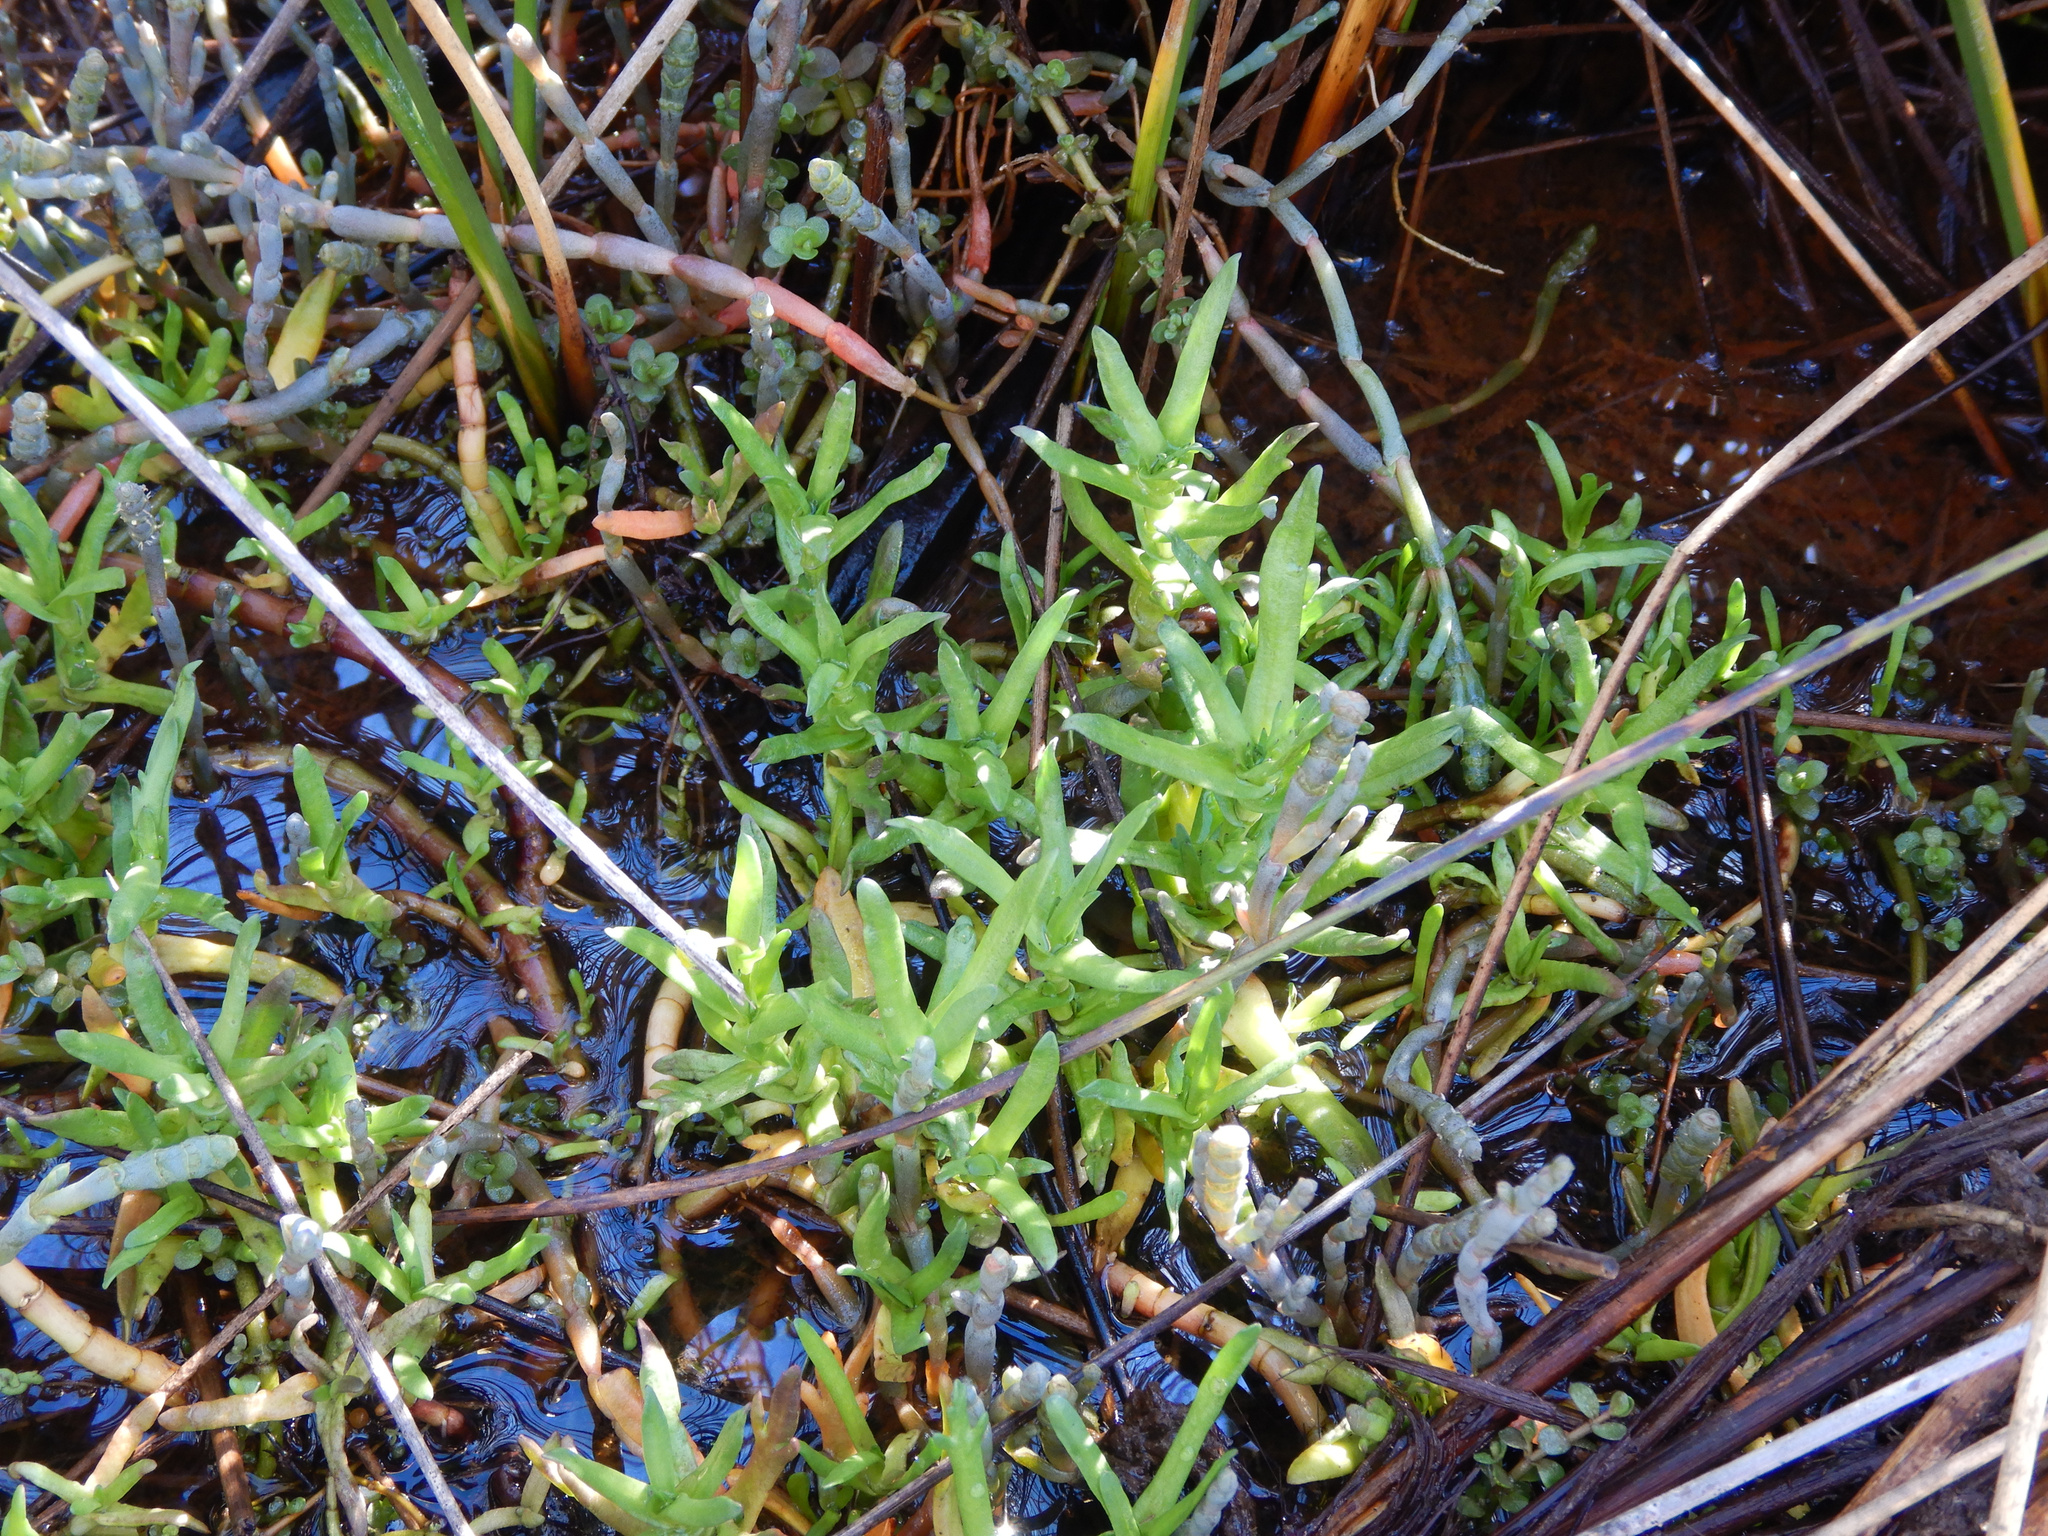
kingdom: Plantae
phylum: Tracheophyta
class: Magnoliopsida
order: Asterales
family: Asteraceae
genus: Cotula
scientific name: Cotula coronopifolia
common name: Buttonweed
